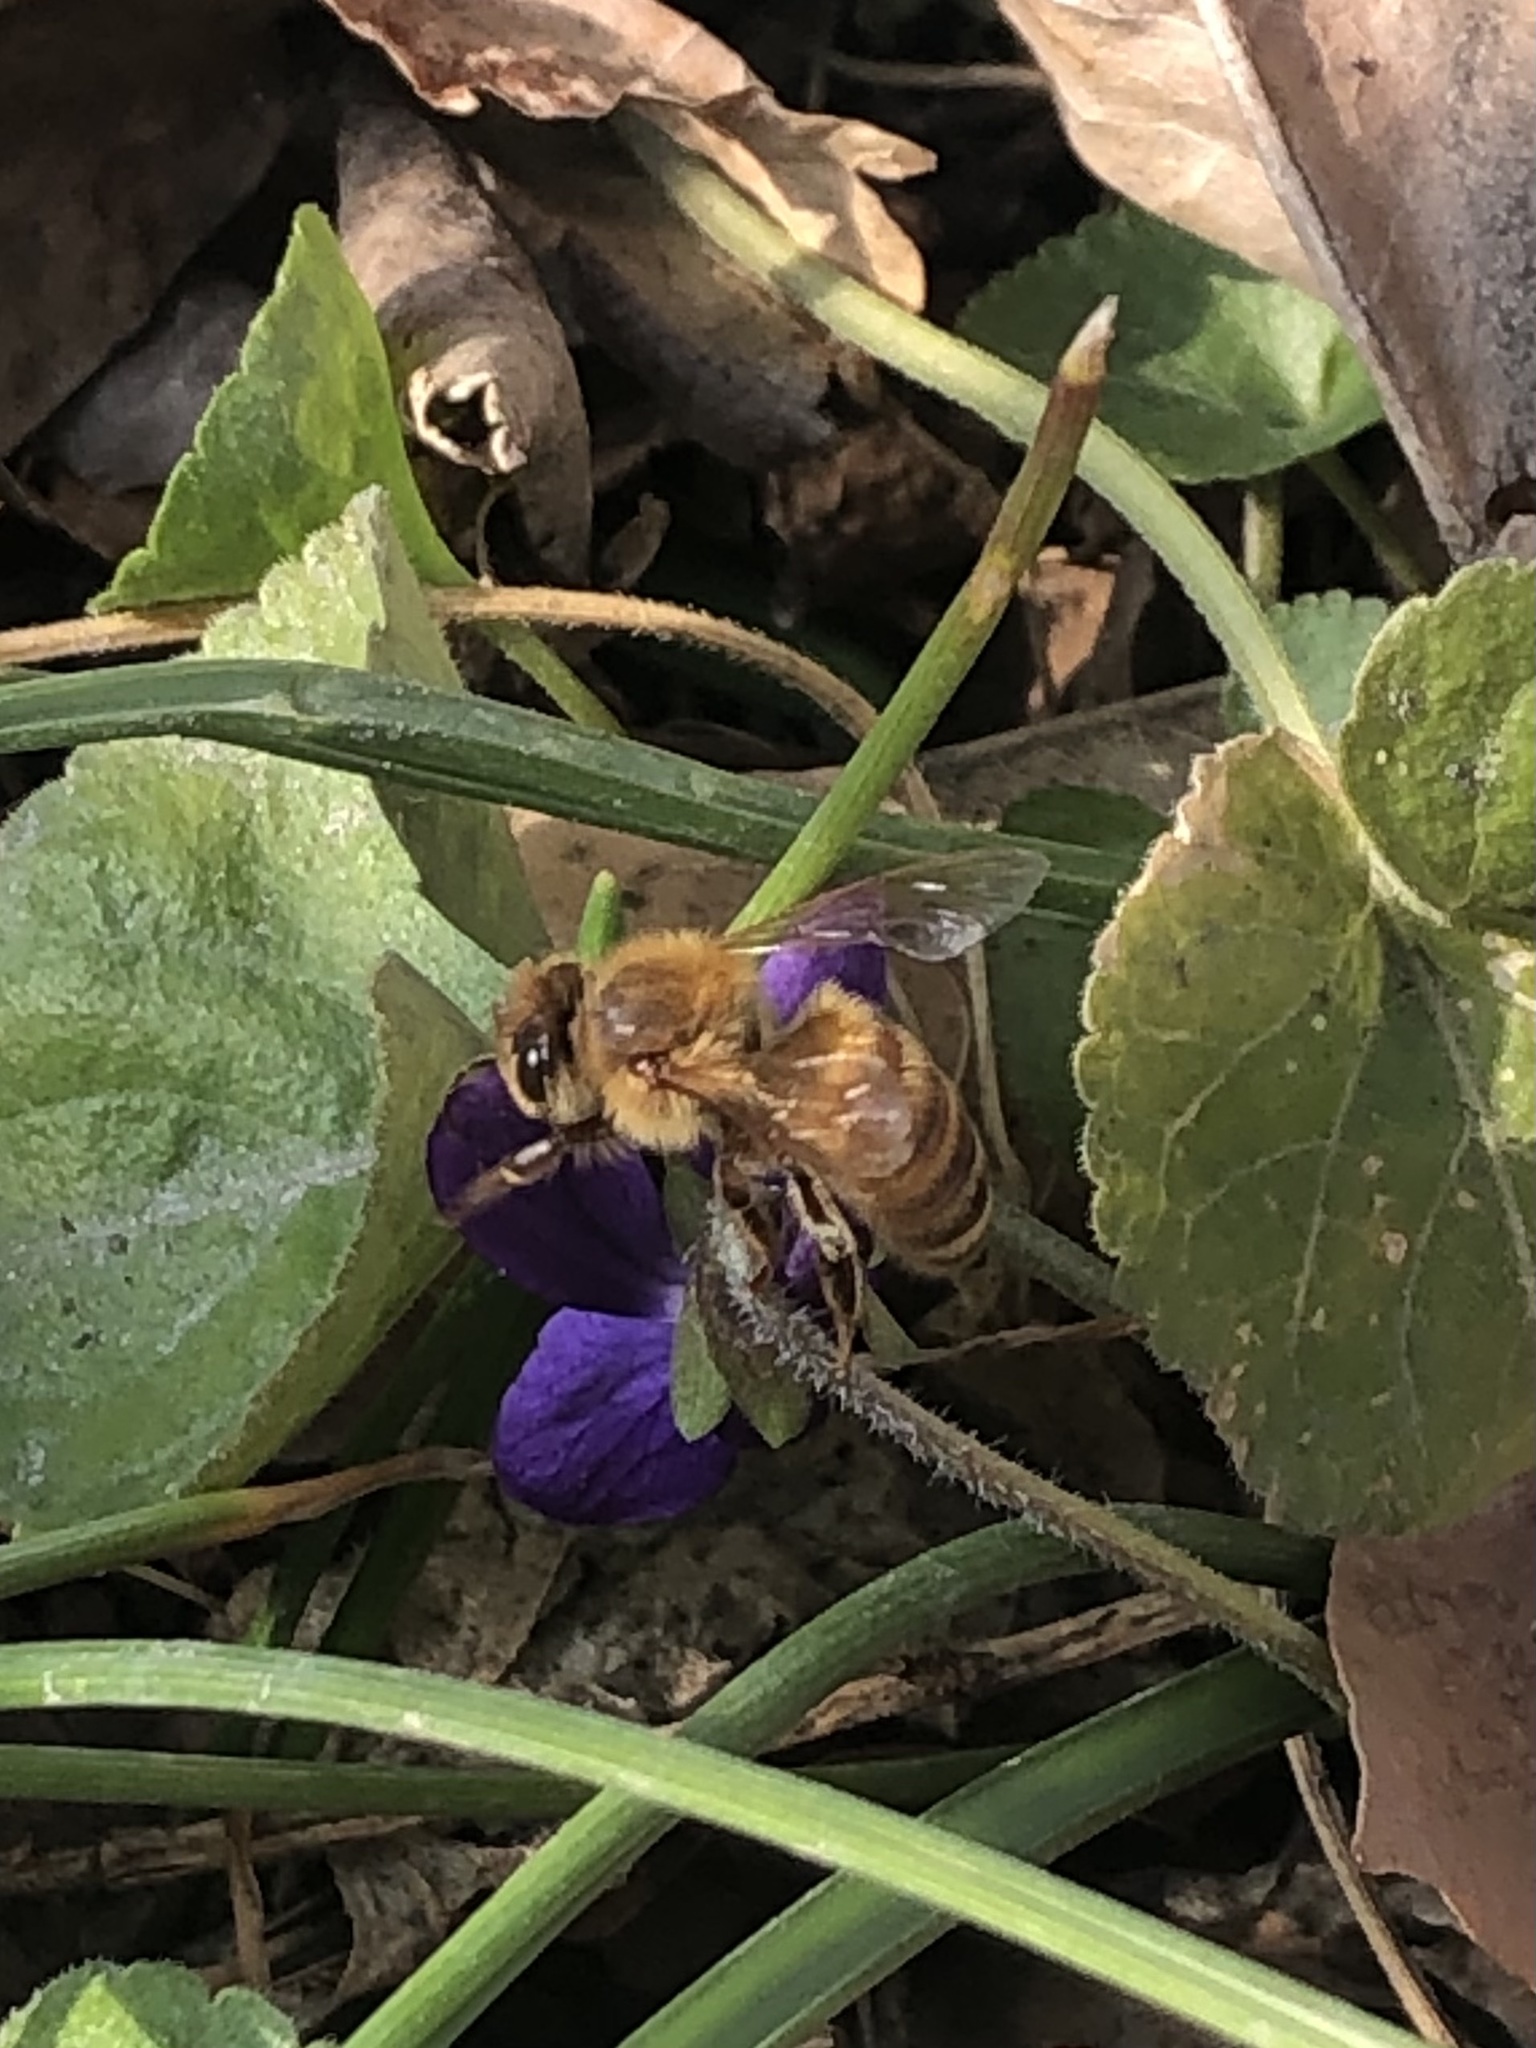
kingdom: Animalia
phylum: Arthropoda
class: Insecta
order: Hymenoptera
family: Apidae
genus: Apis
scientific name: Apis mellifera
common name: Honey bee
